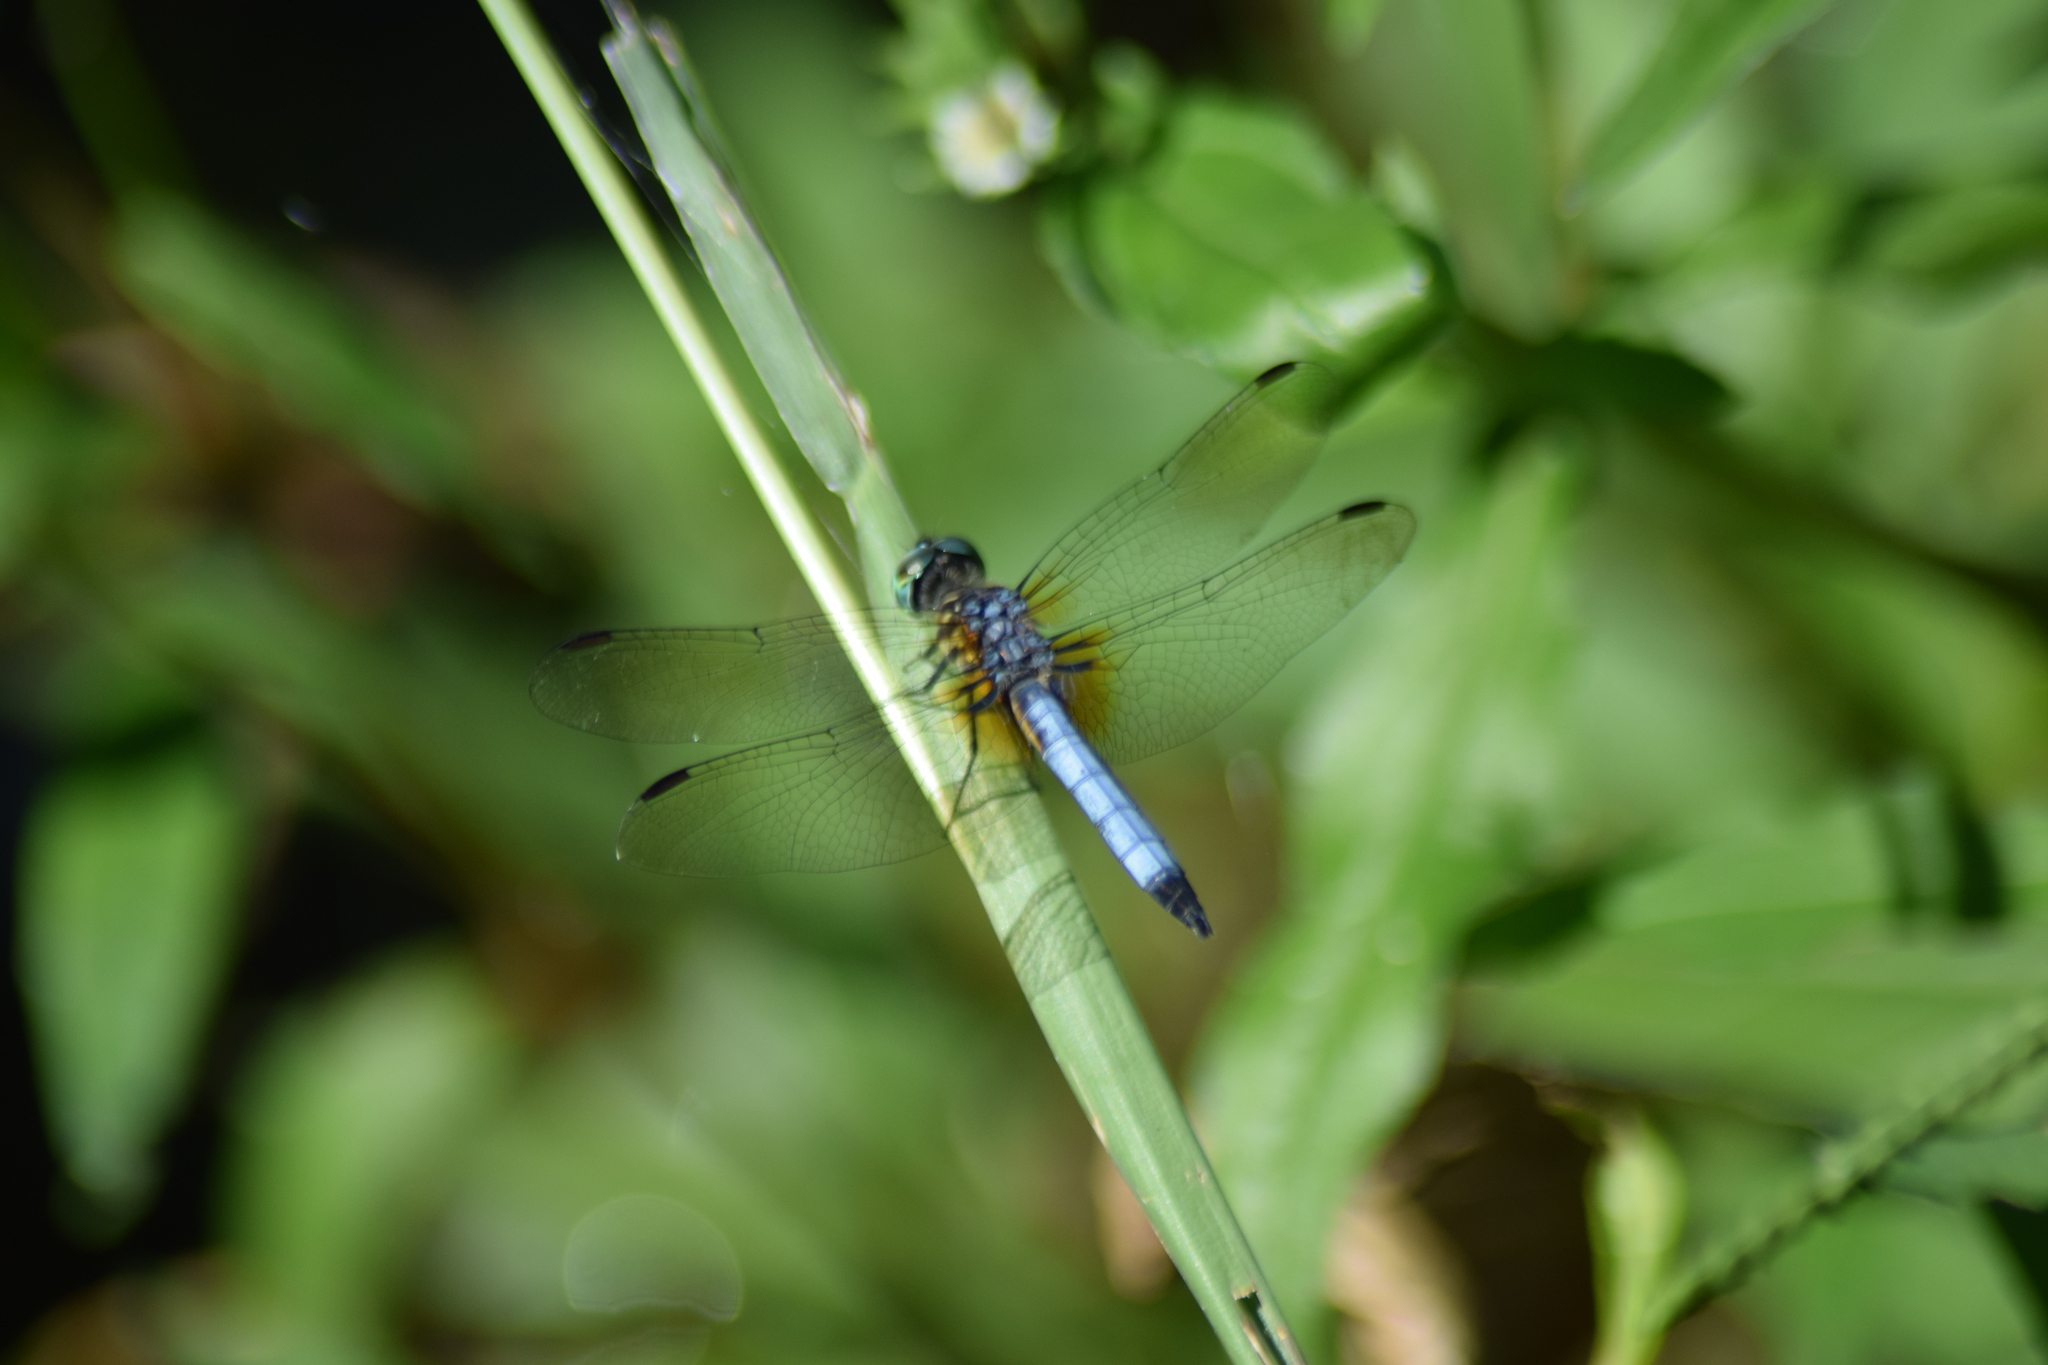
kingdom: Animalia
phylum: Arthropoda
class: Insecta
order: Odonata
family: Libellulidae
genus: Pachydiplax
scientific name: Pachydiplax longipennis
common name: Blue dasher
